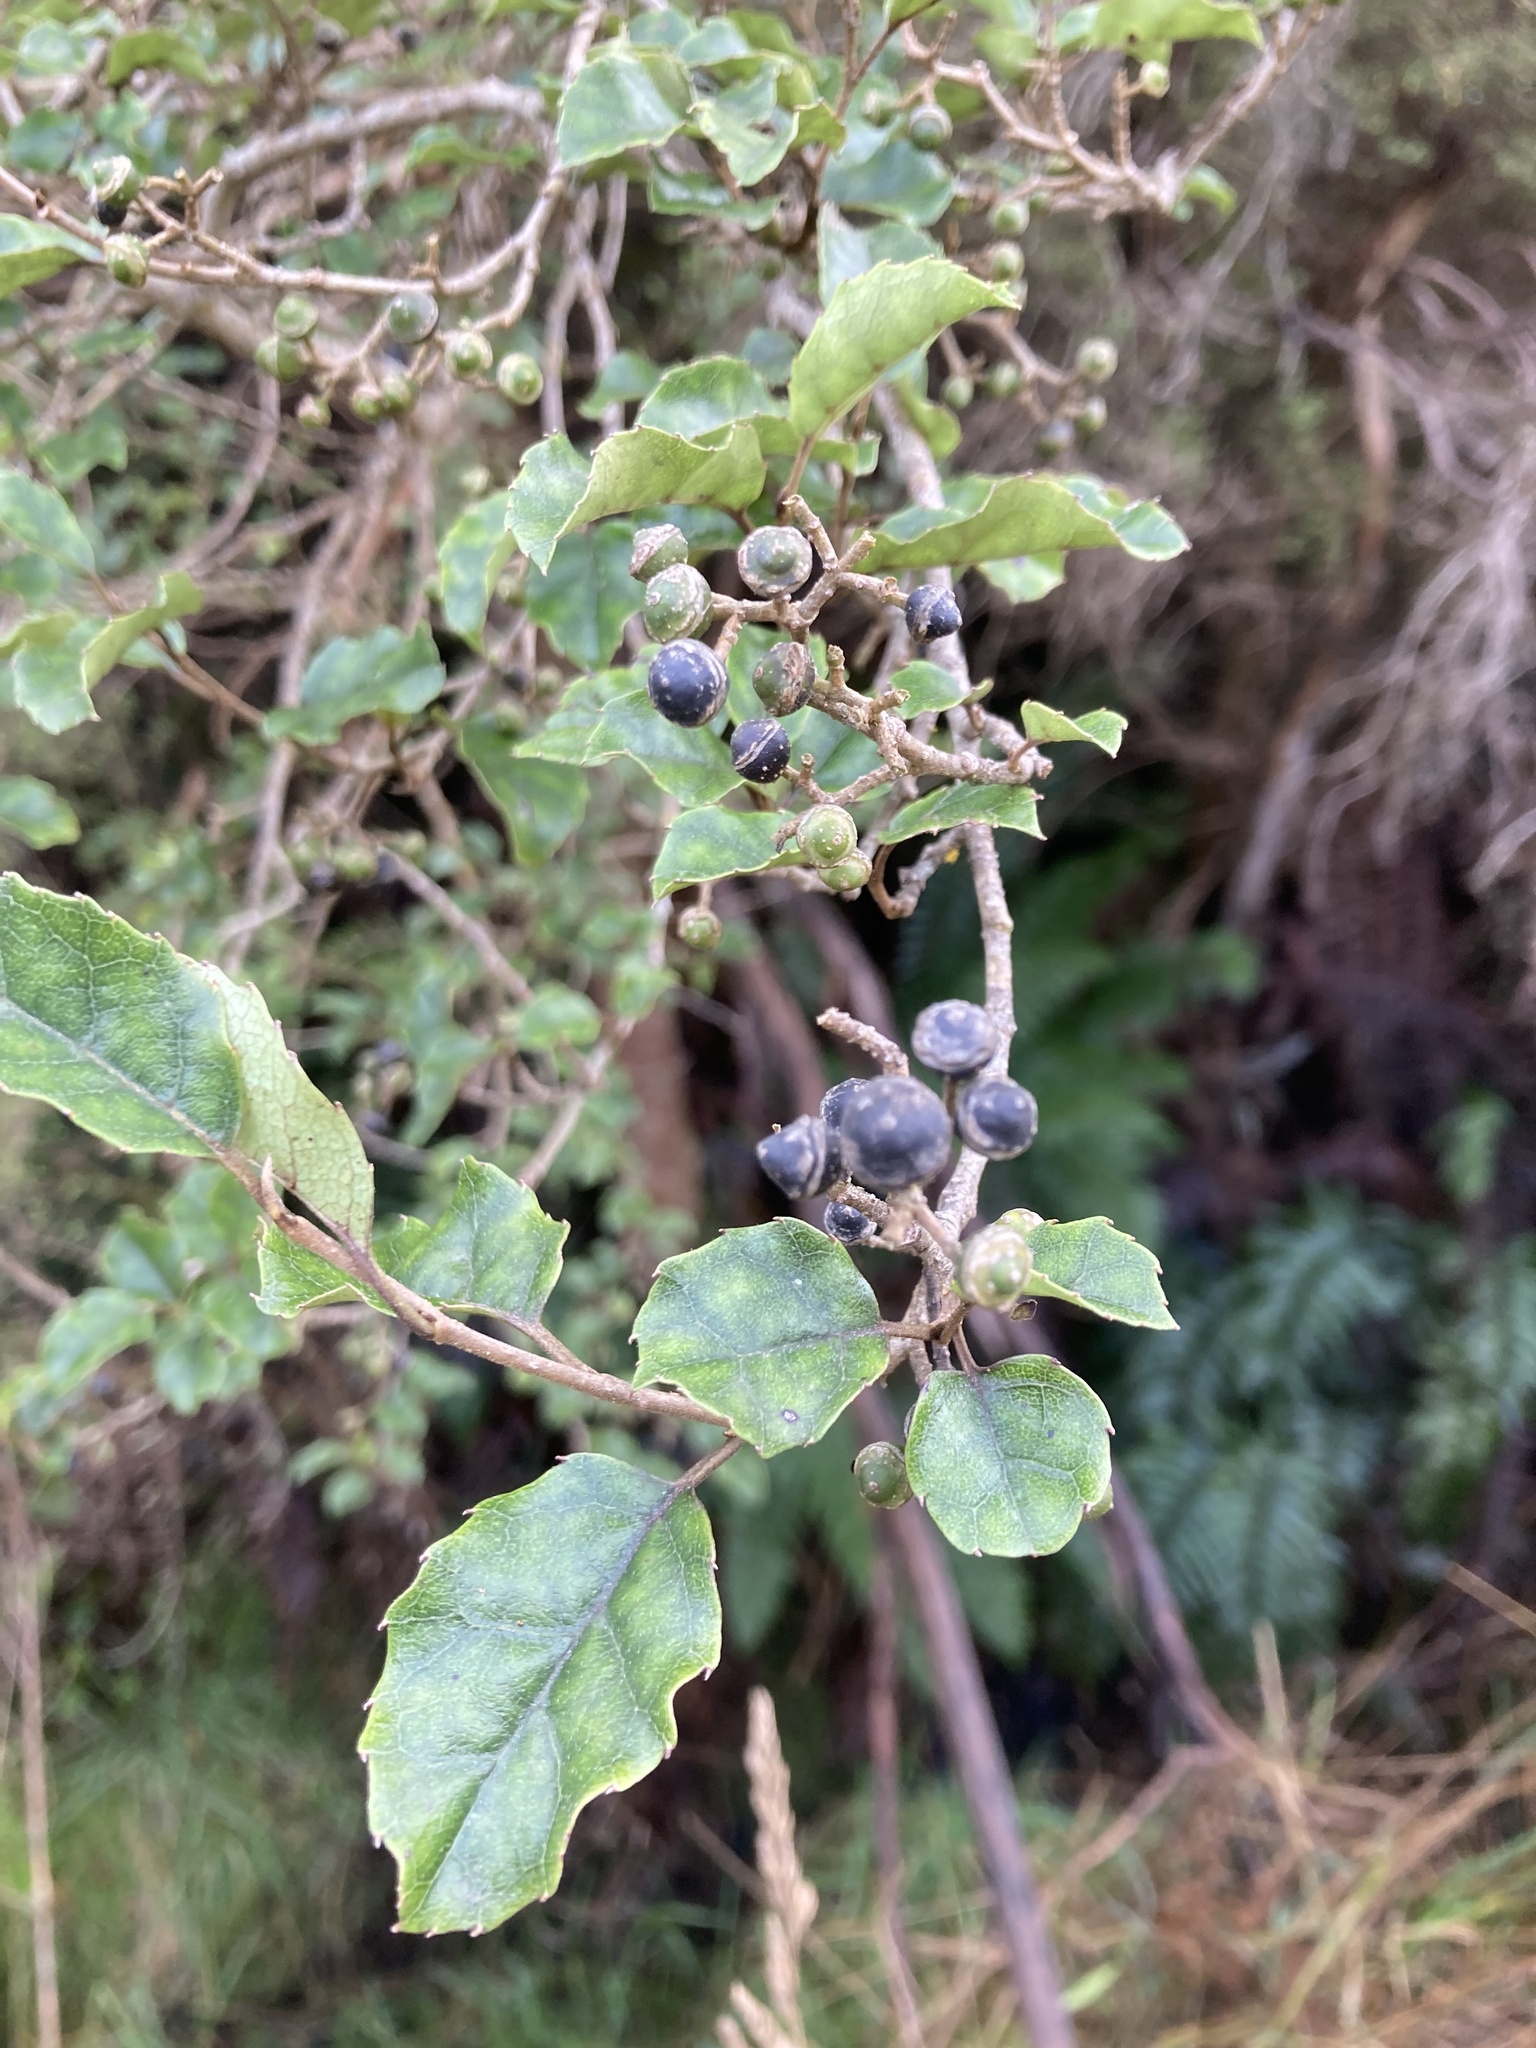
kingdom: Plantae
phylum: Tracheophyta
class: Magnoliopsida
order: Asterales
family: Rousseaceae
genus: Carpodetus
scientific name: Carpodetus serratus
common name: White mapau
